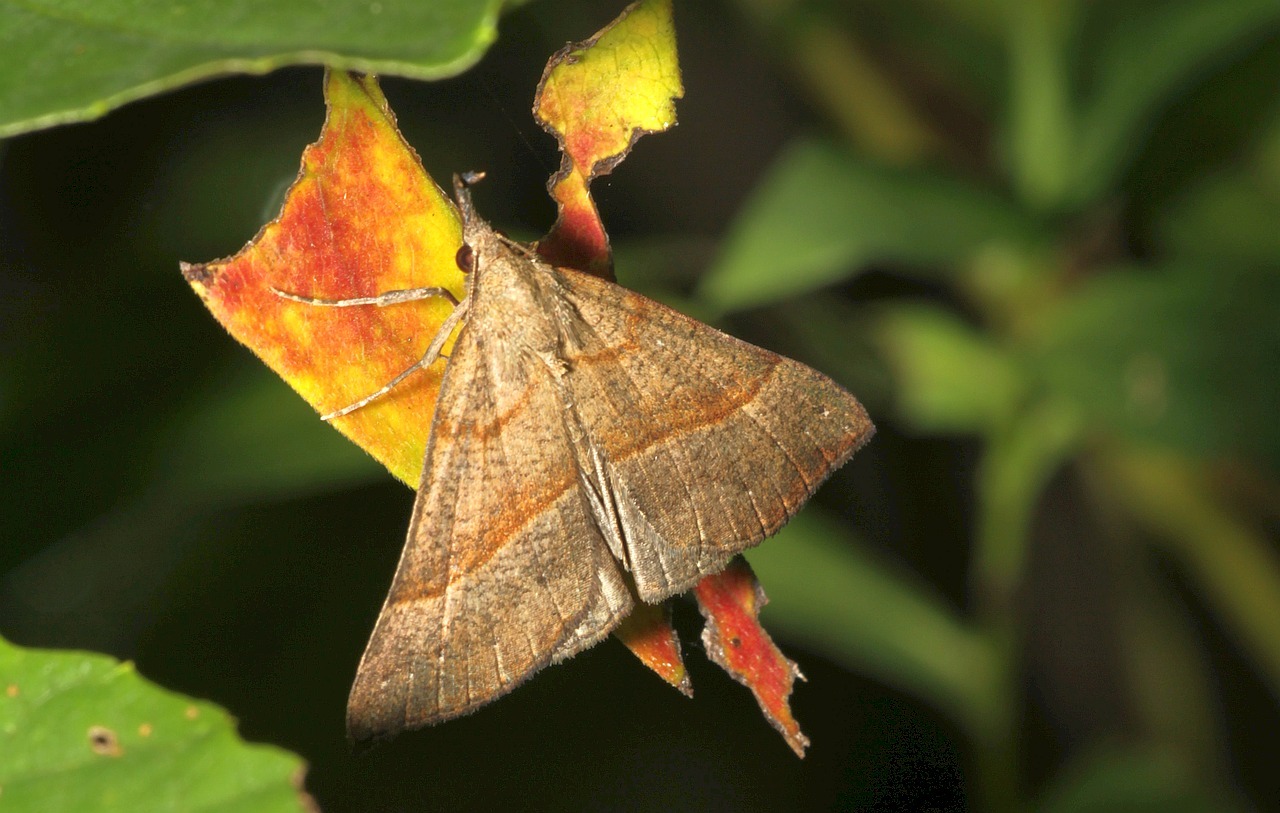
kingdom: Animalia
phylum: Arthropoda
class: Insecta
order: Lepidoptera
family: Erebidae
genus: Hypena
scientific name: Hypena proboscidalis
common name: Snout
